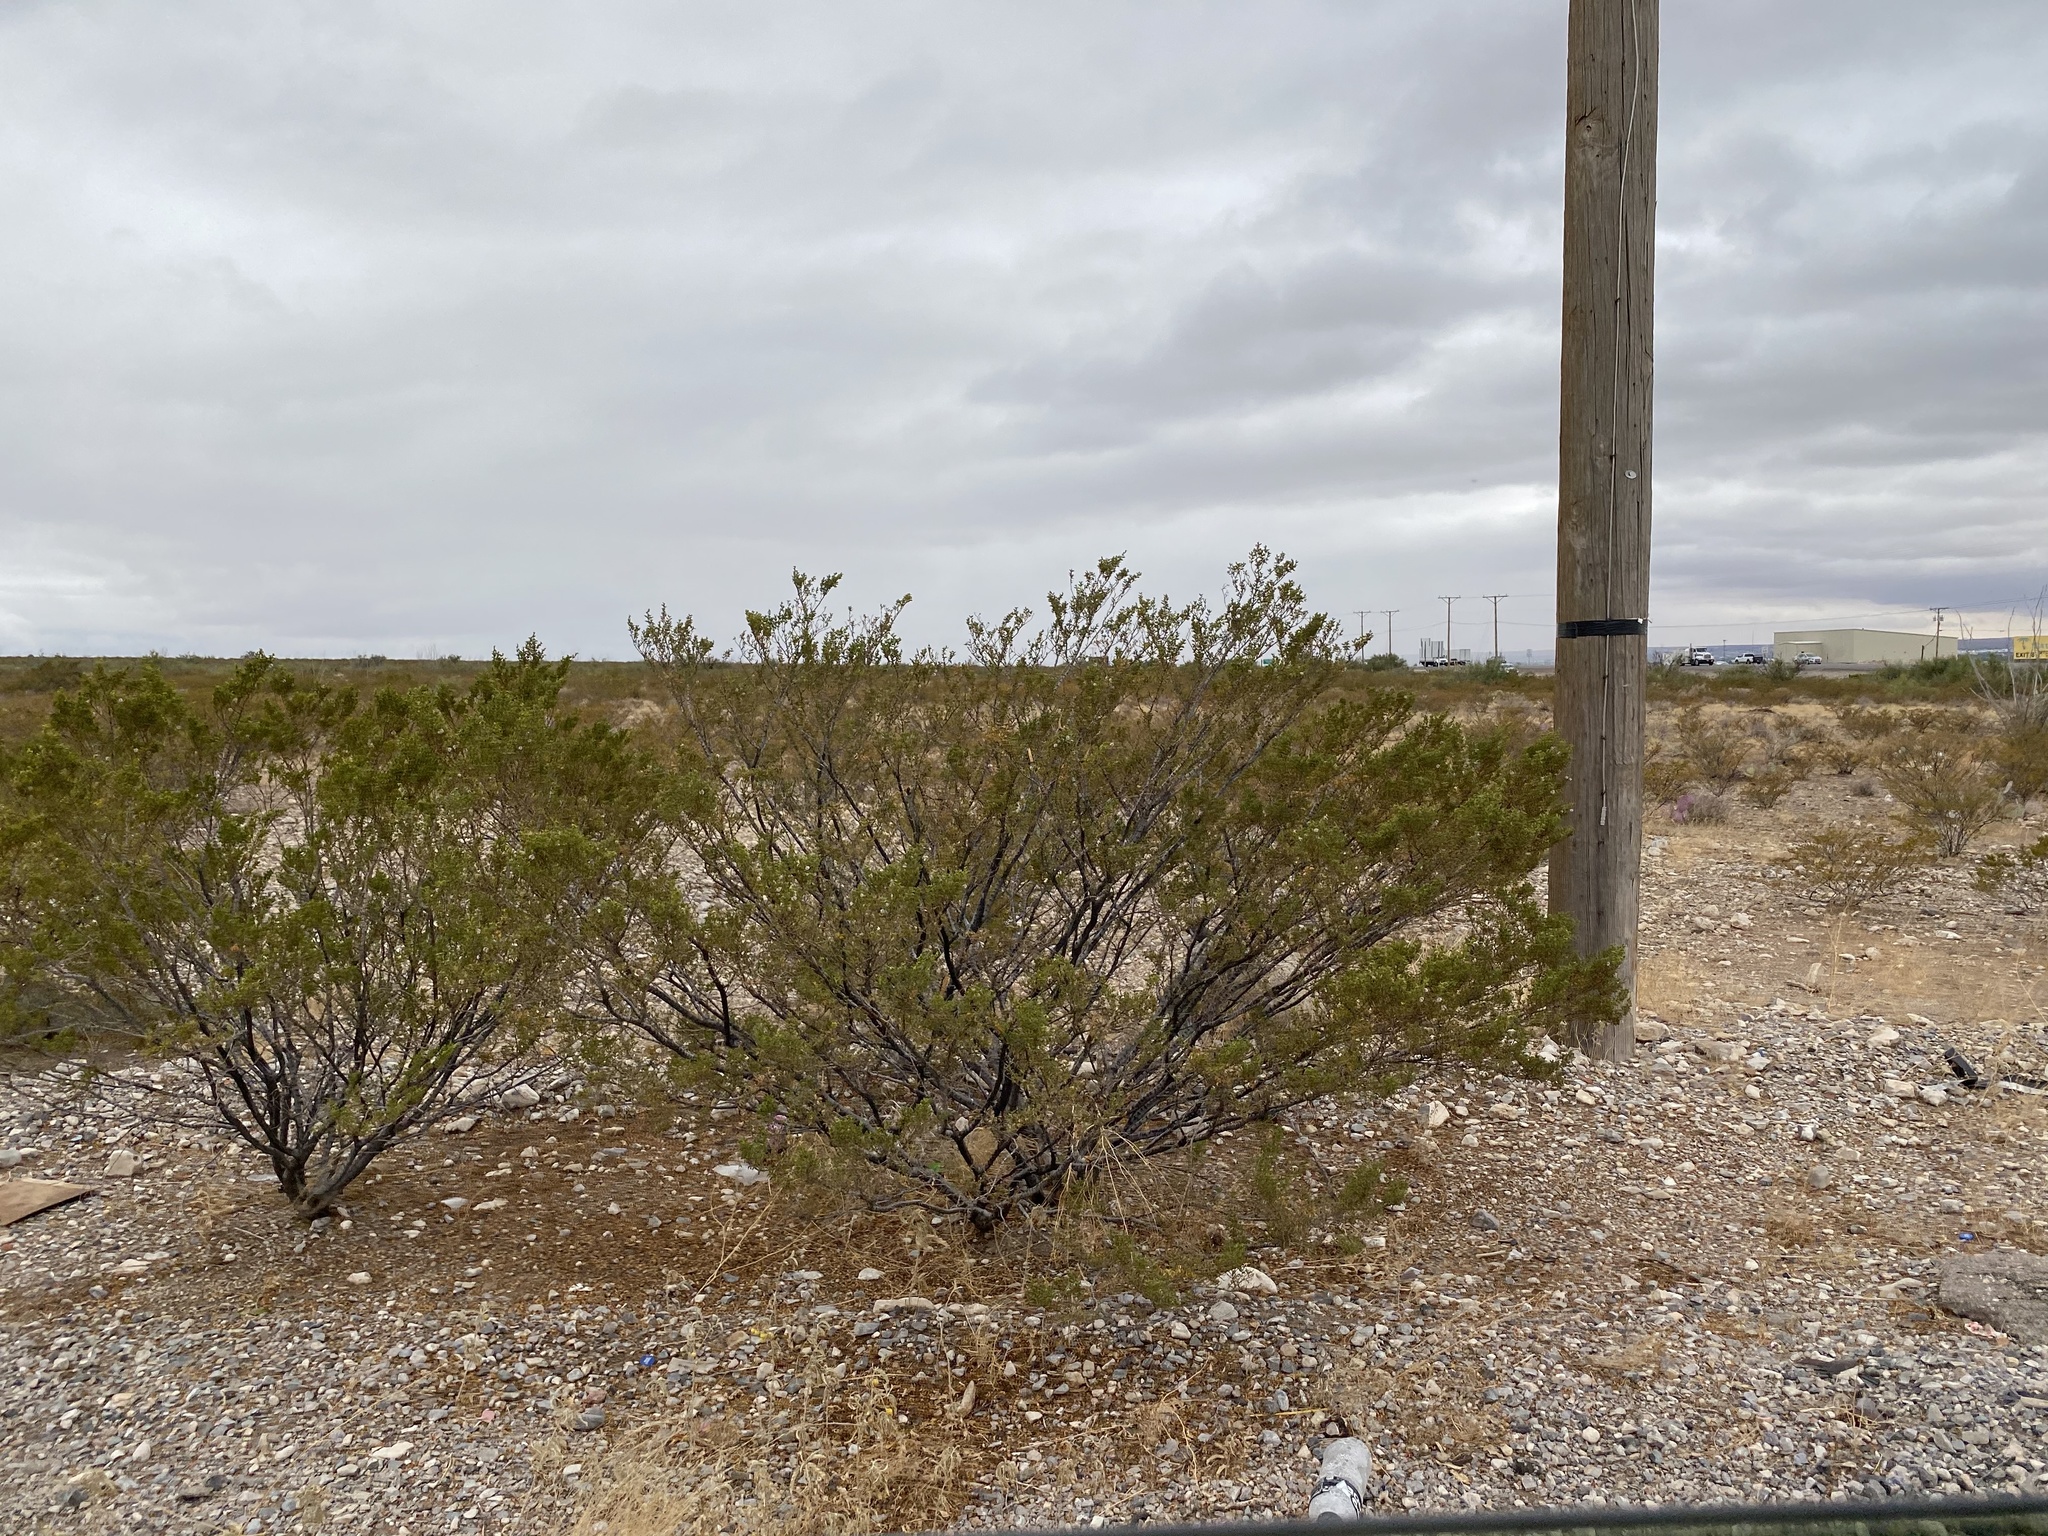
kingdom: Plantae
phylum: Tracheophyta
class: Magnoliopsida
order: Zygophyllales
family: Zygophyllaceae
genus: Larrea
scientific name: Larrea tridentata
